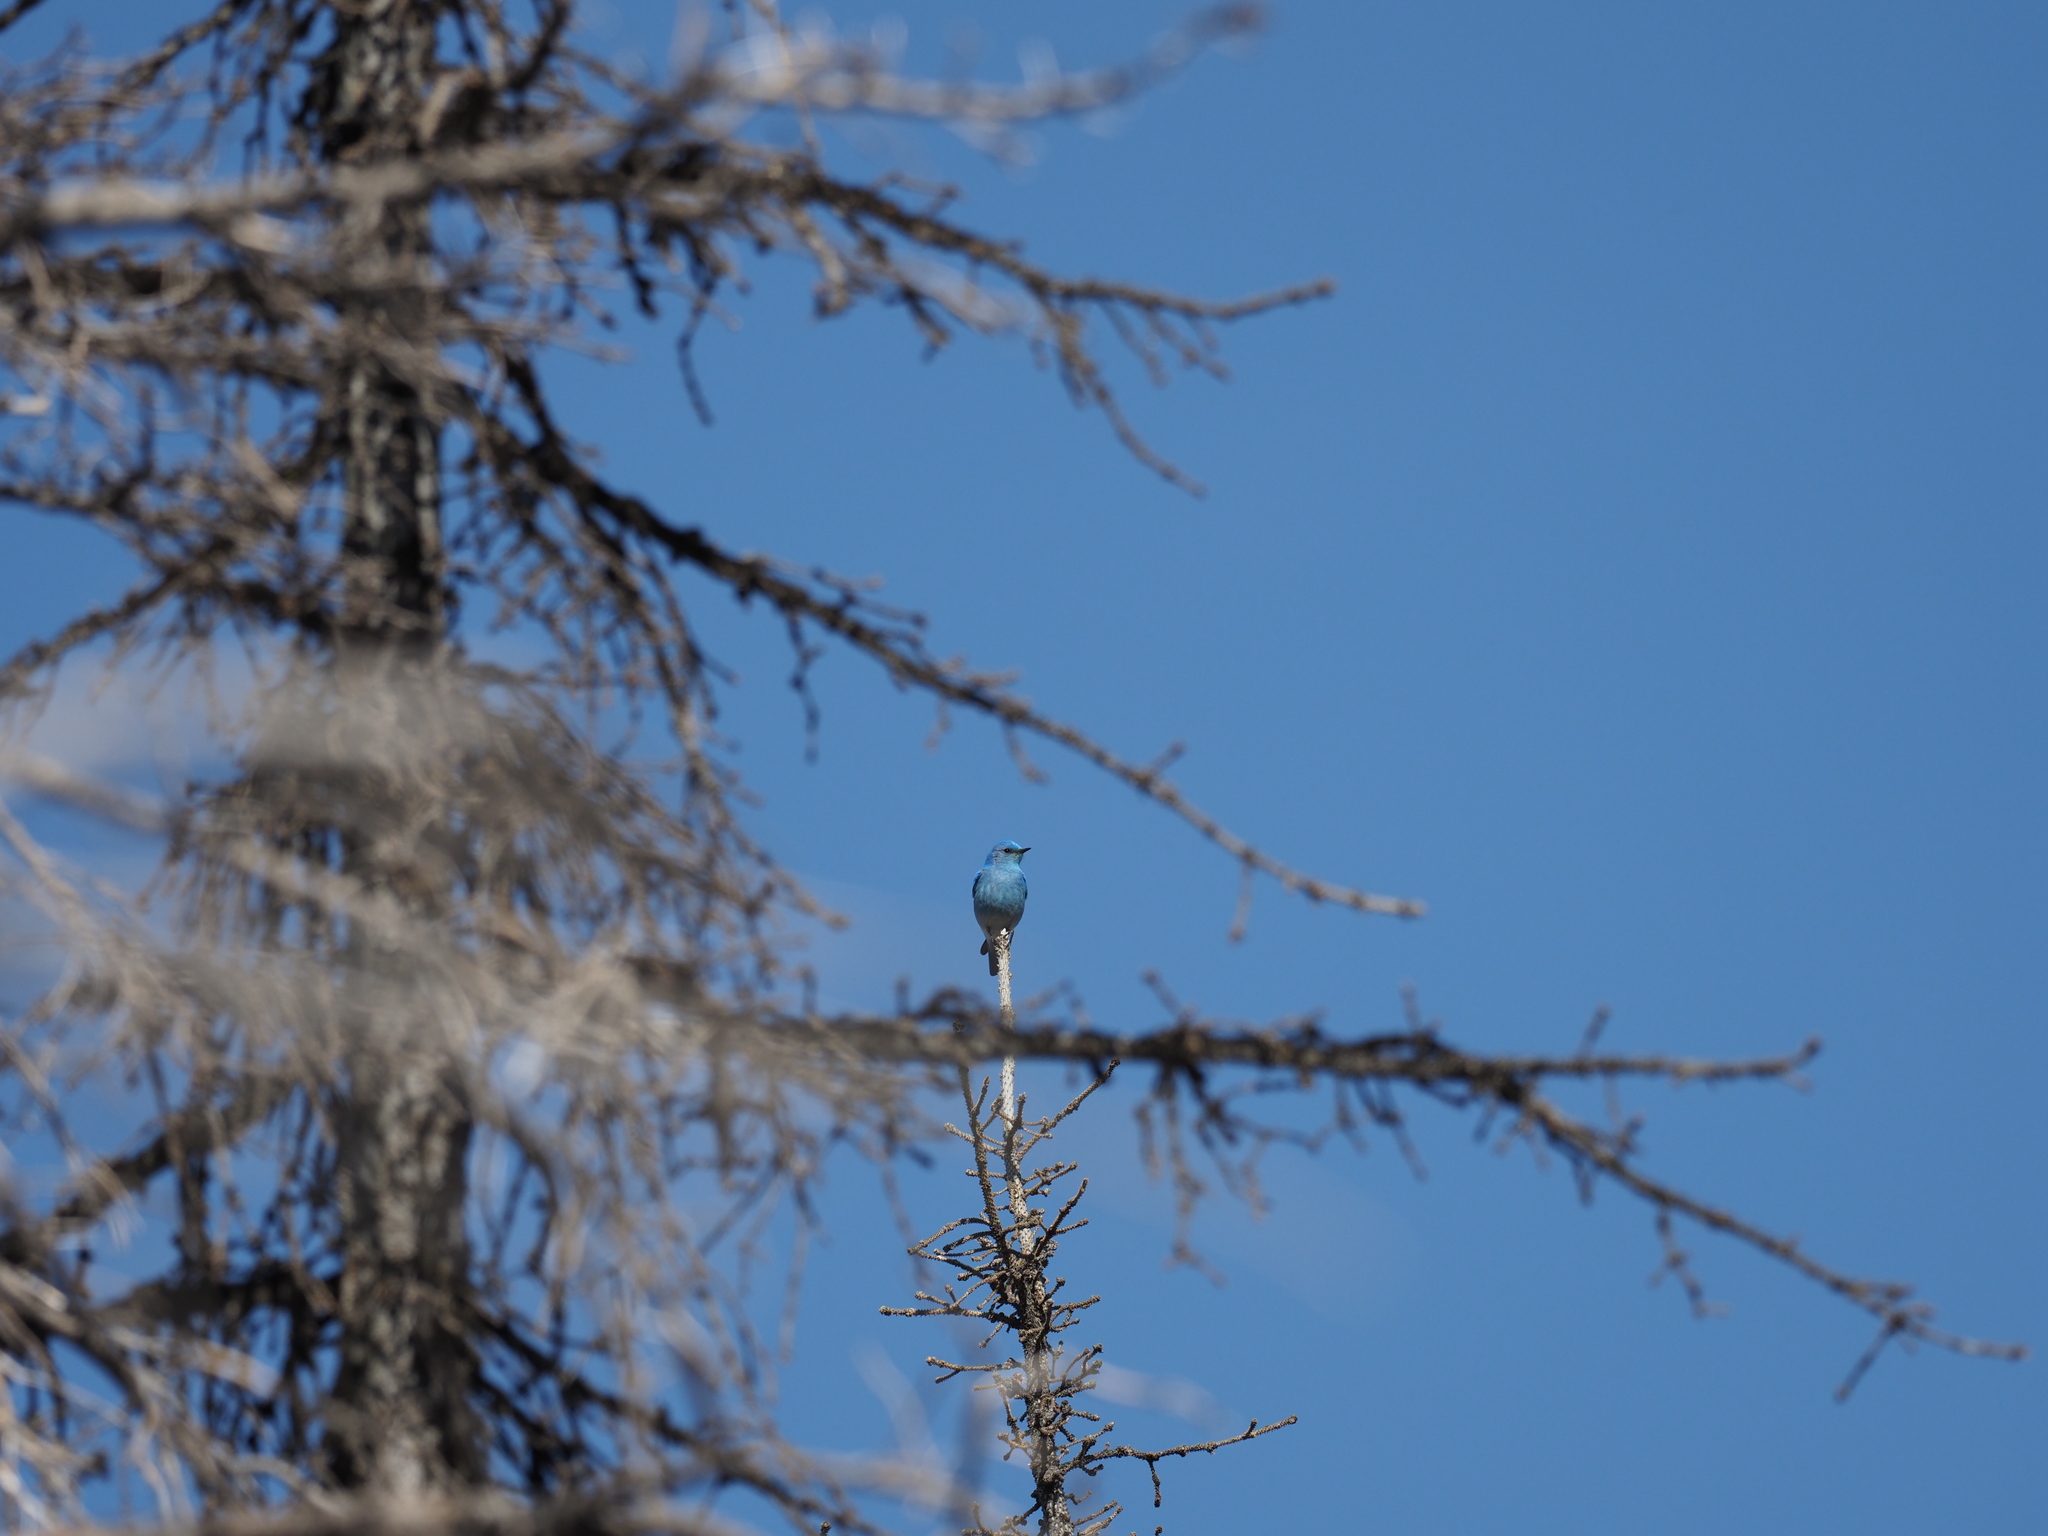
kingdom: Animalia
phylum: Chordata
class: Aves
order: Passeriformes
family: Turdidae
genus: Sialia
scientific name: Sialia currucoides
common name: Mountain bluebird
